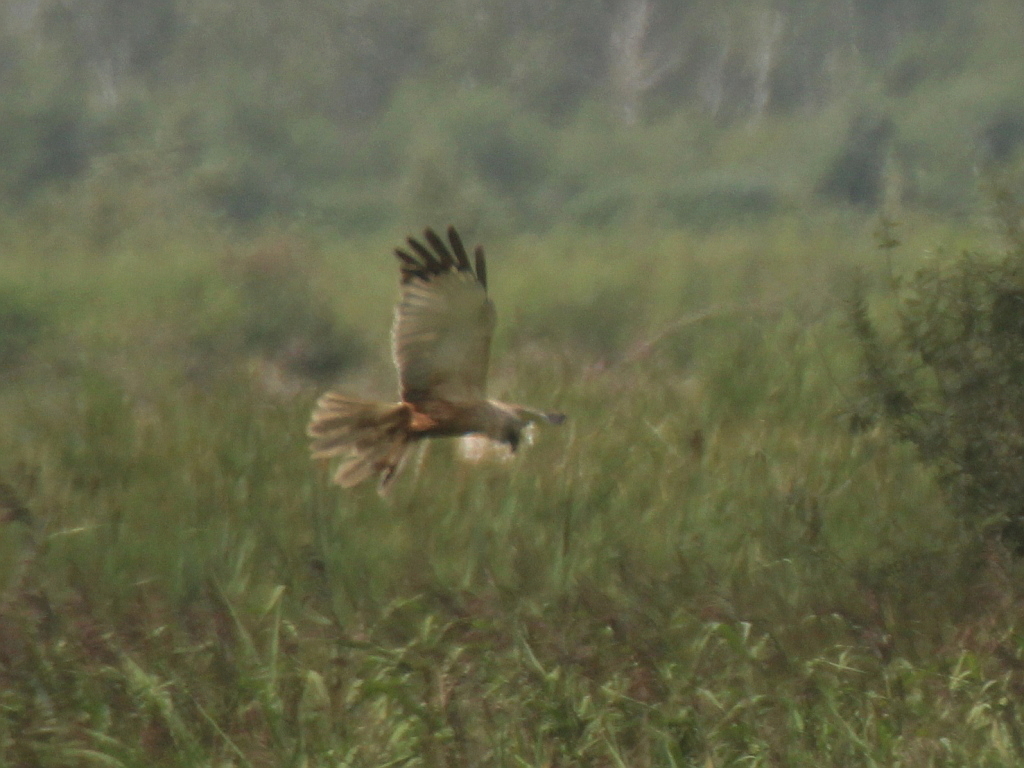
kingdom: Animalia
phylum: Chordata
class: Aves
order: Accipitriformes
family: Accipitridae
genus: Circus
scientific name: Circus aeruginosus
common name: Western marsh harrier
